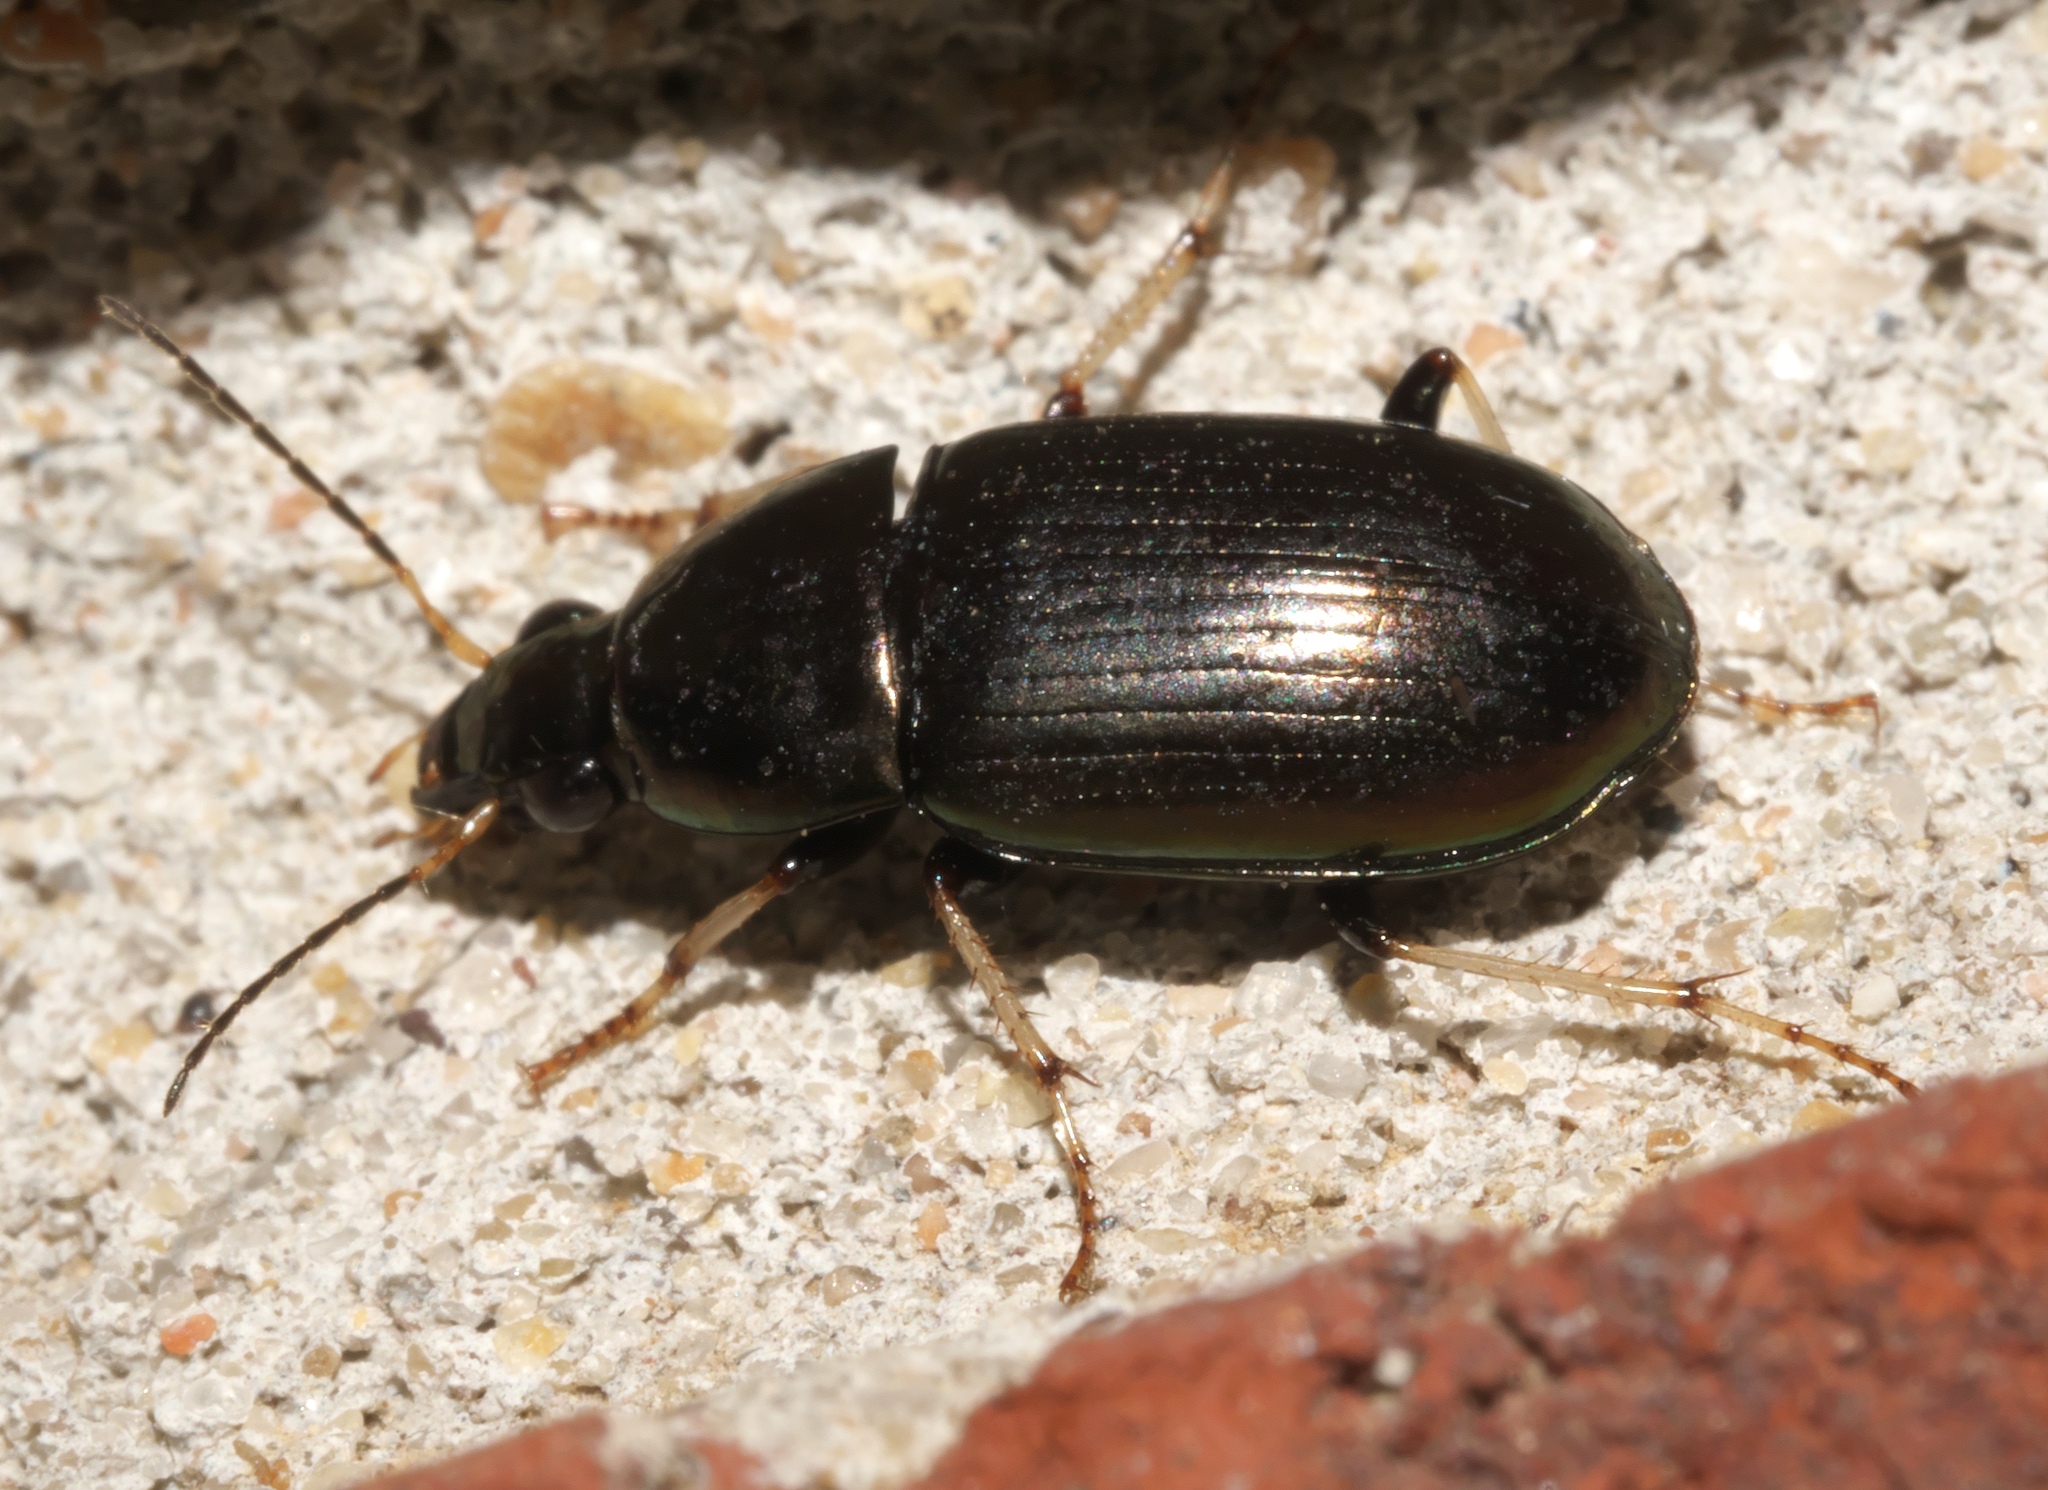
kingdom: Animalia
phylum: Arthropoda
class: Insecta
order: Coleoptera
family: Carabidae
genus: Stenocrepis
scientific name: Stenocrepis cuprea
